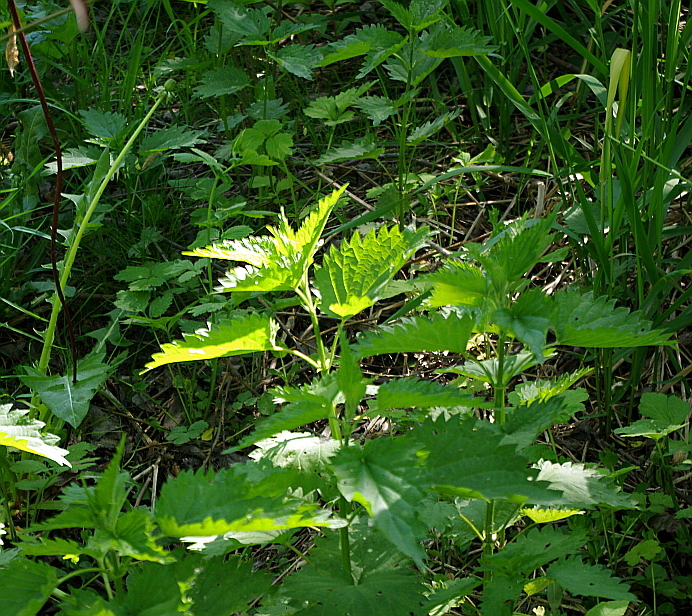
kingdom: Plantae
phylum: Tracheophyta
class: Magnoliopsida
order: Rosales
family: Urticaceae
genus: Urtica
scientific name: Urtica dioica
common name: Common nettle
